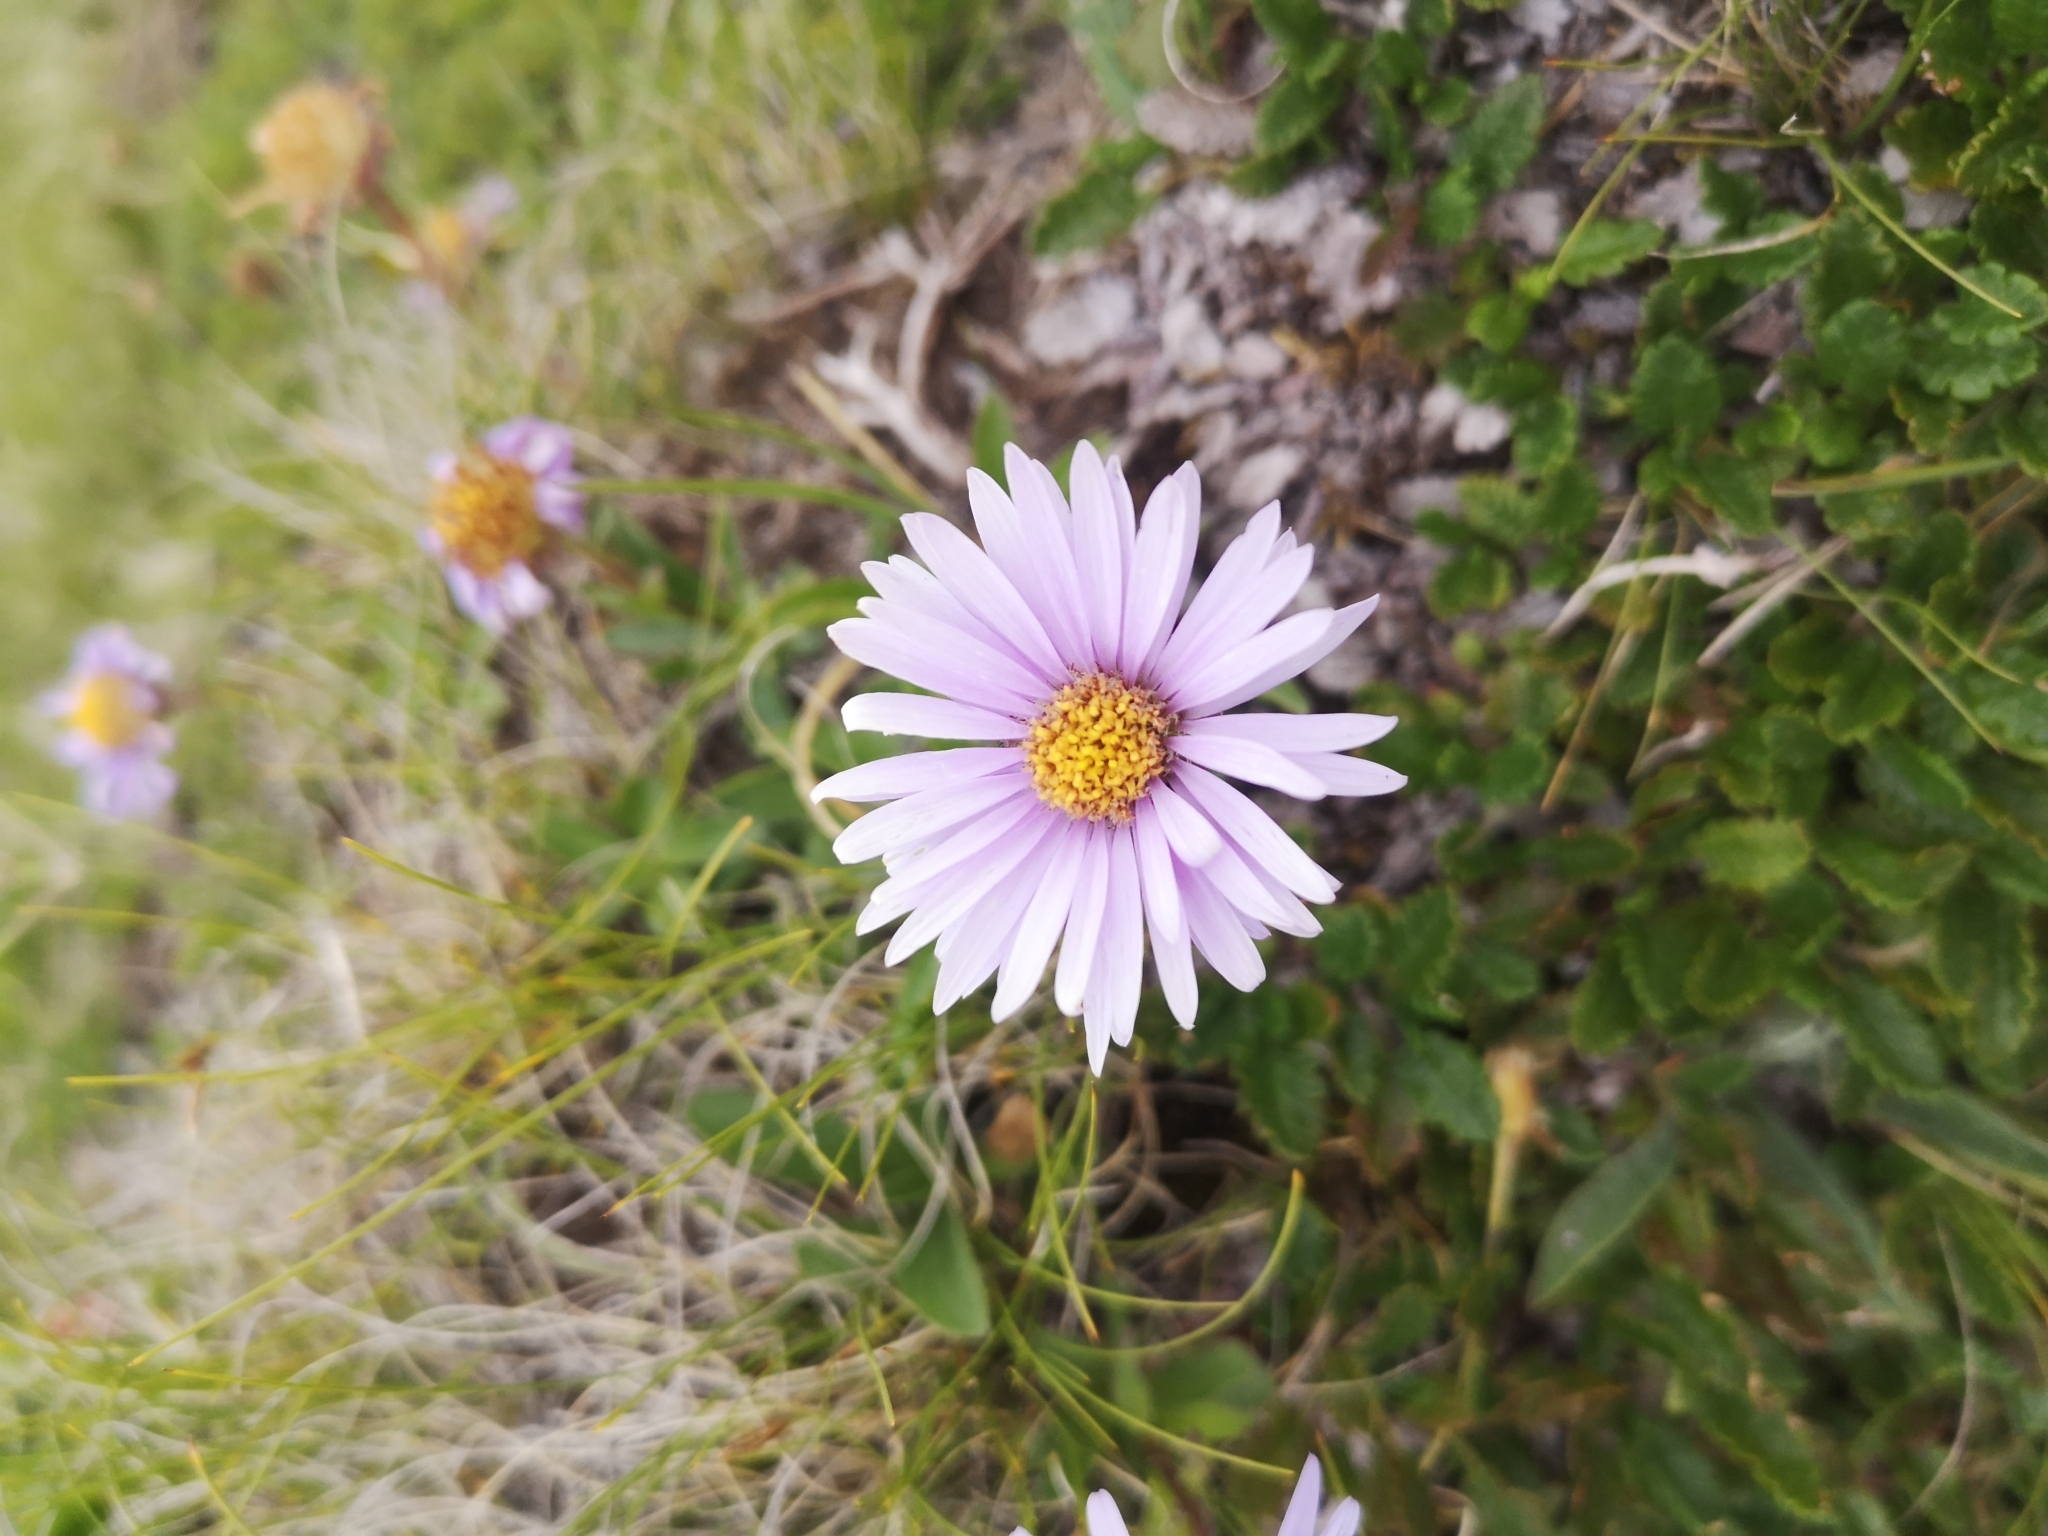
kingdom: Plantae
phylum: Tracheophyta
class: Magnoliopsida
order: Asterales
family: Asteraceae
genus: Aster
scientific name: Aster alpinus
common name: Alpine aster
